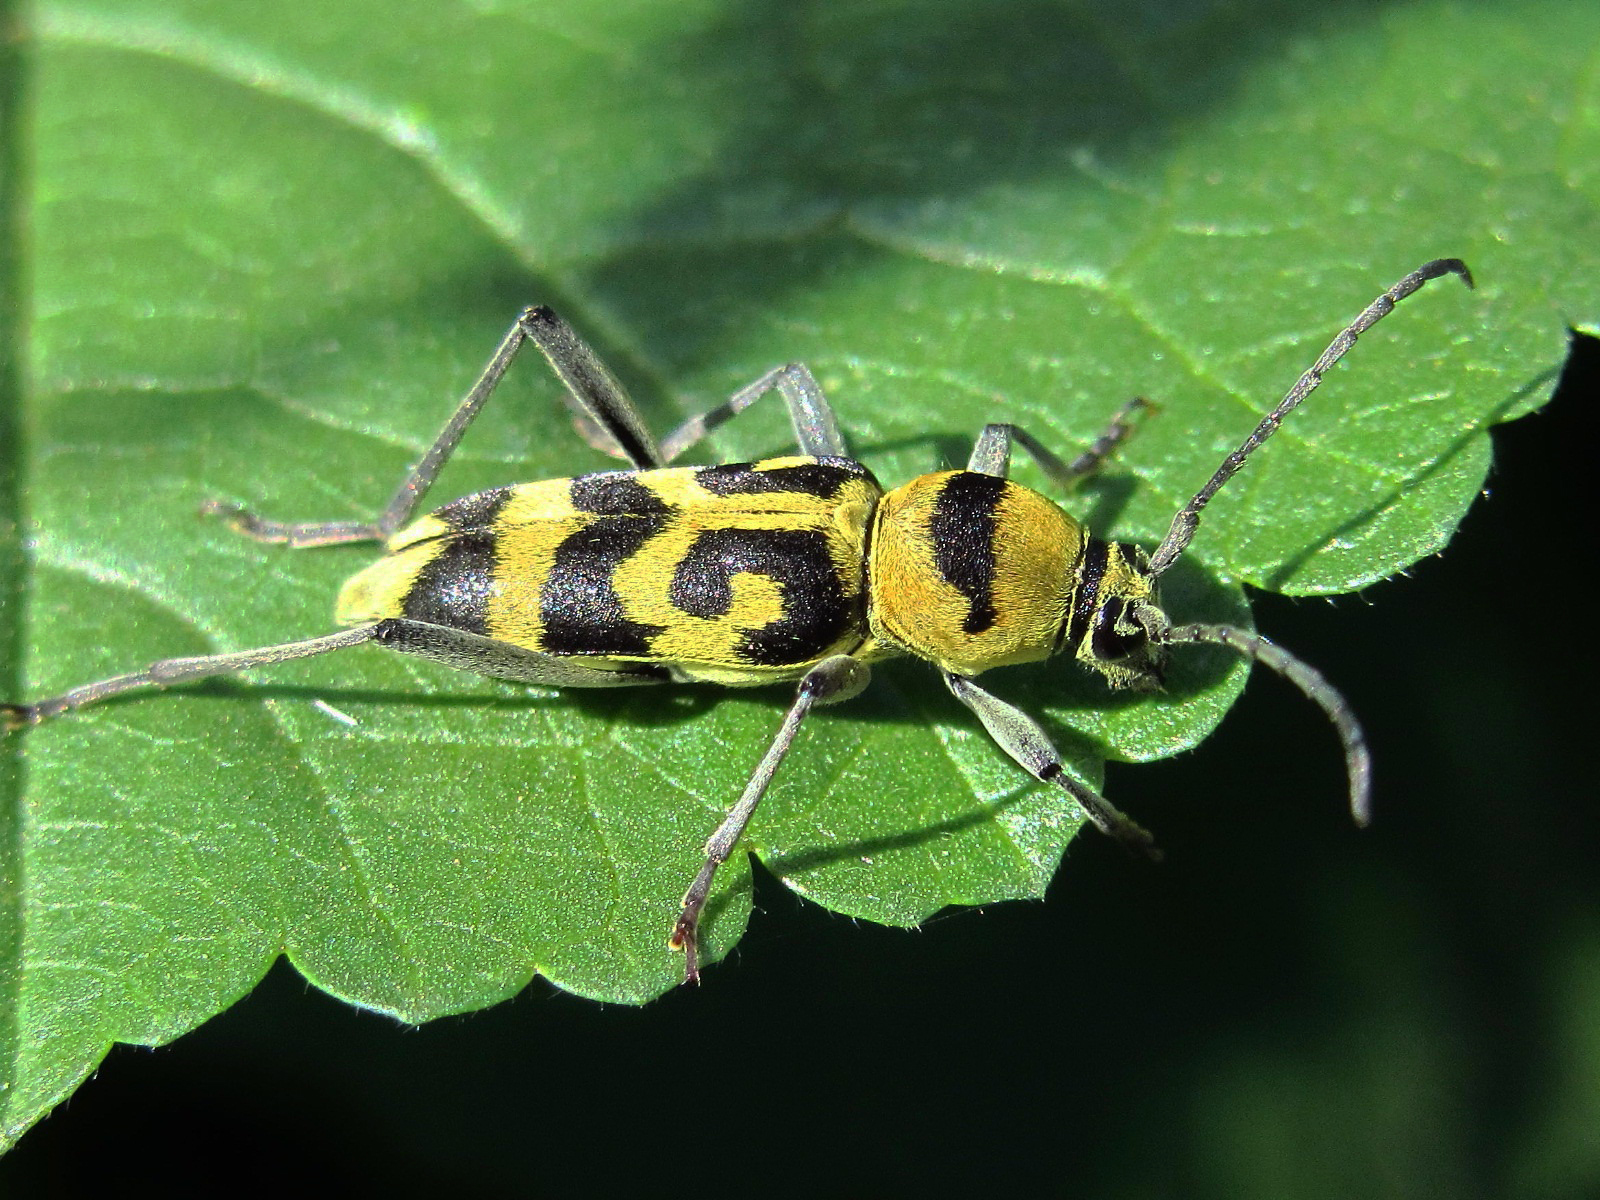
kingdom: Animalia
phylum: Arthropoda
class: Insecta
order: Coleoptera
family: Cerambycidae
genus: Chlorophorus
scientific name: Chlorophorus varius
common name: Grape wood borer
